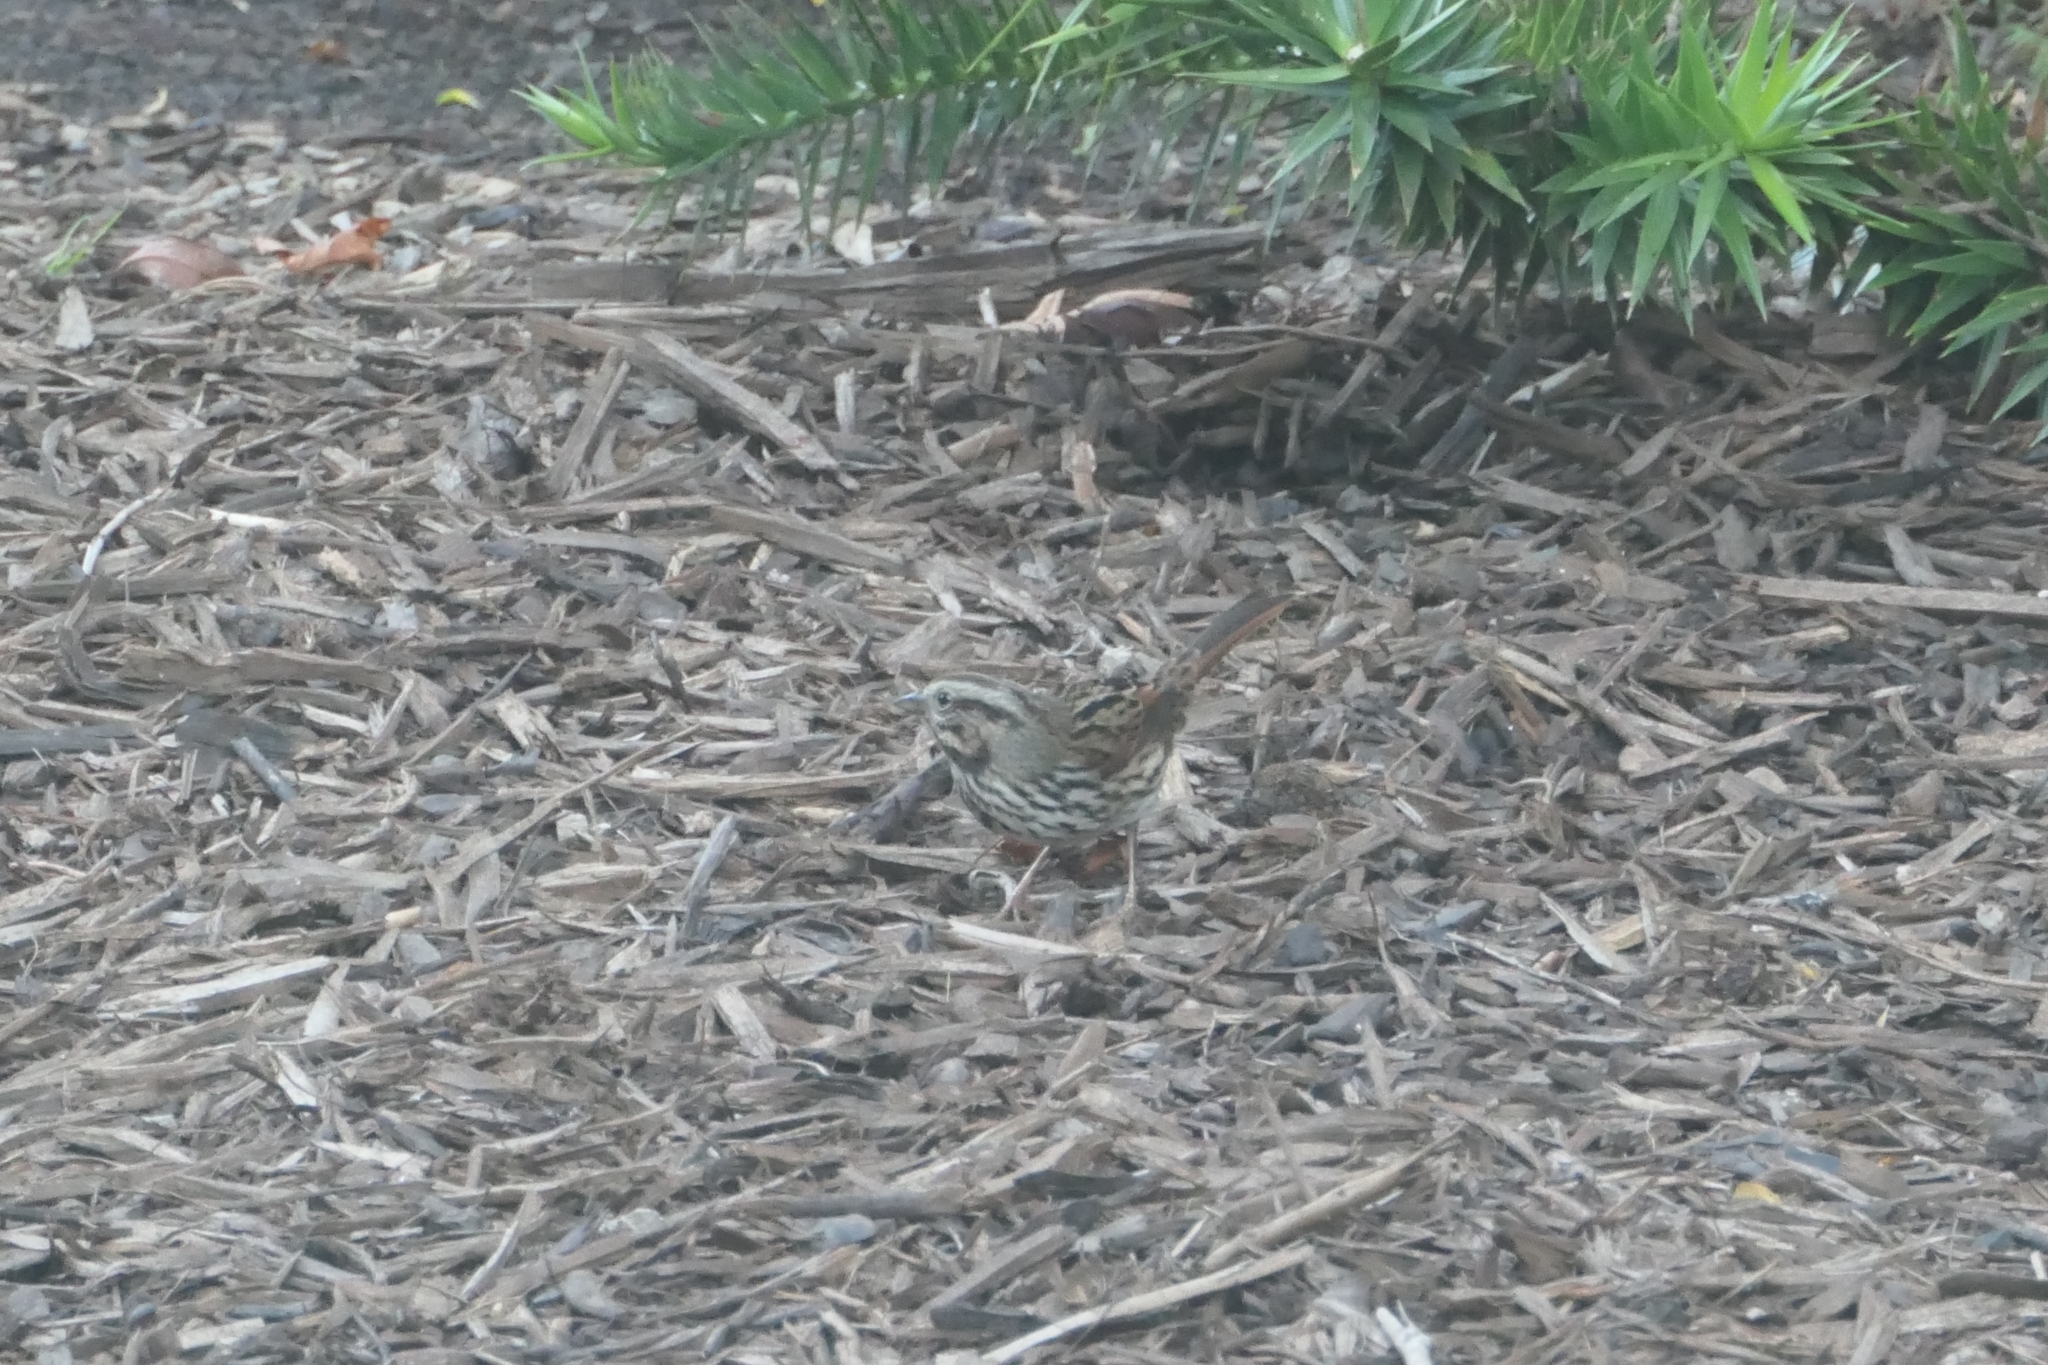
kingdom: Animalia
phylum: Chordata
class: Aves
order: Passeriformes
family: Passerellidae
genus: Melospiza
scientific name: Melospiza melodia
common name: Song sparrow
